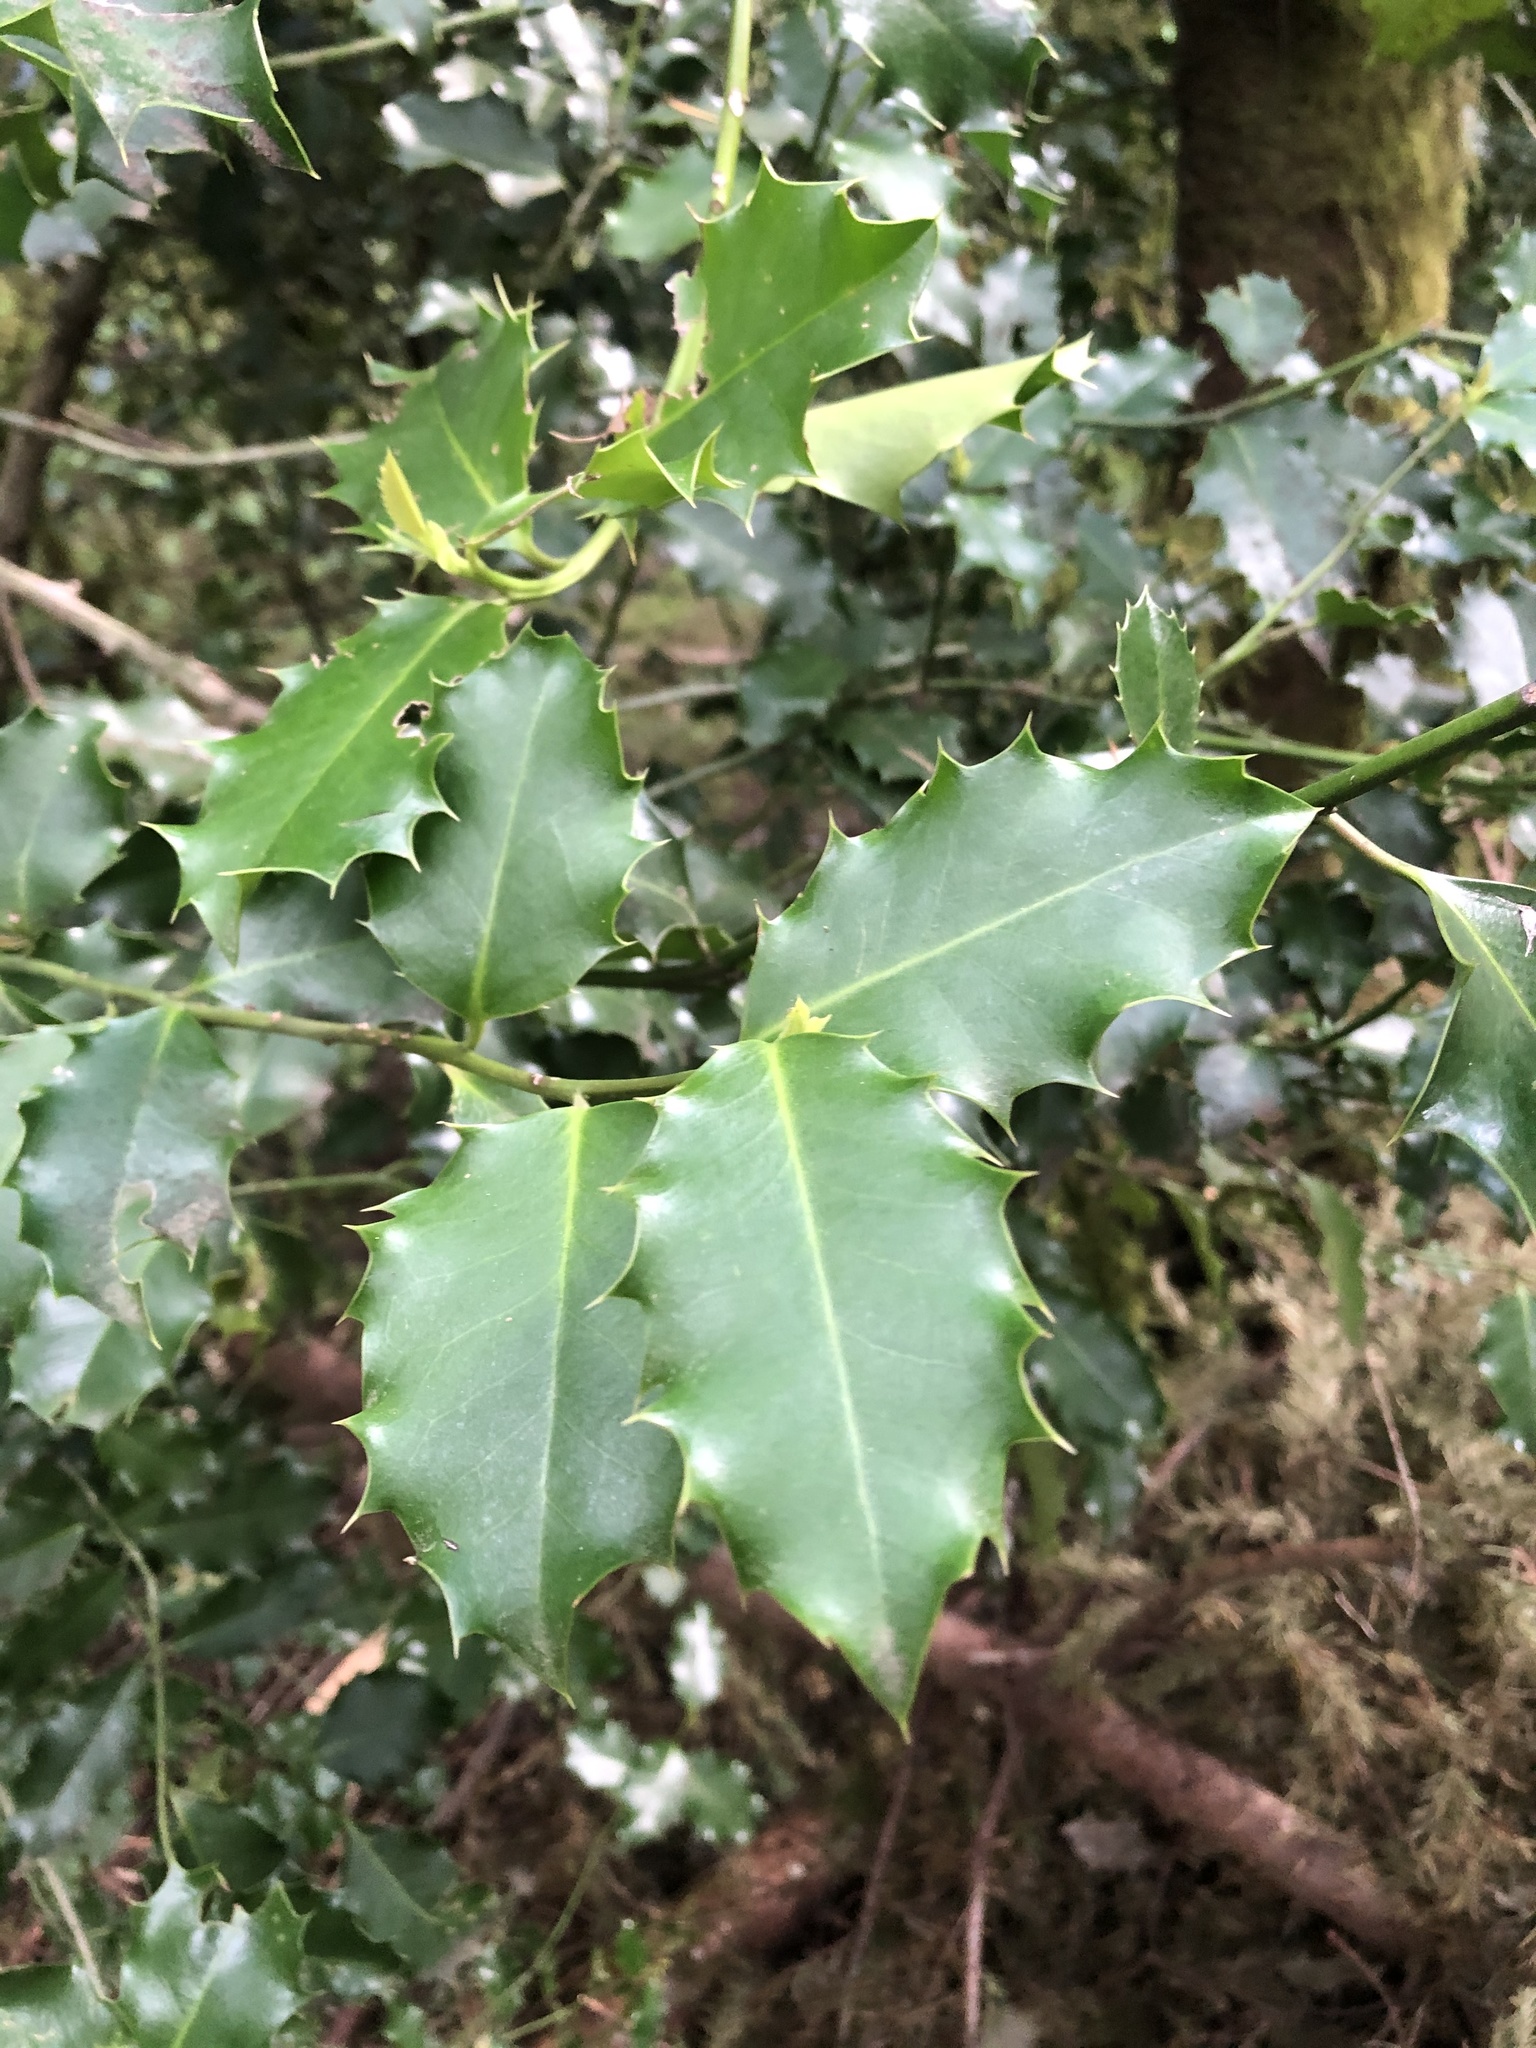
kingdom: Plantae
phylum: Tracheophyta
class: Magnoliopsida
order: Aquifoliales
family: Aquifoliaceae
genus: Ilex
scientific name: Ilex aquifolium
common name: English holly
